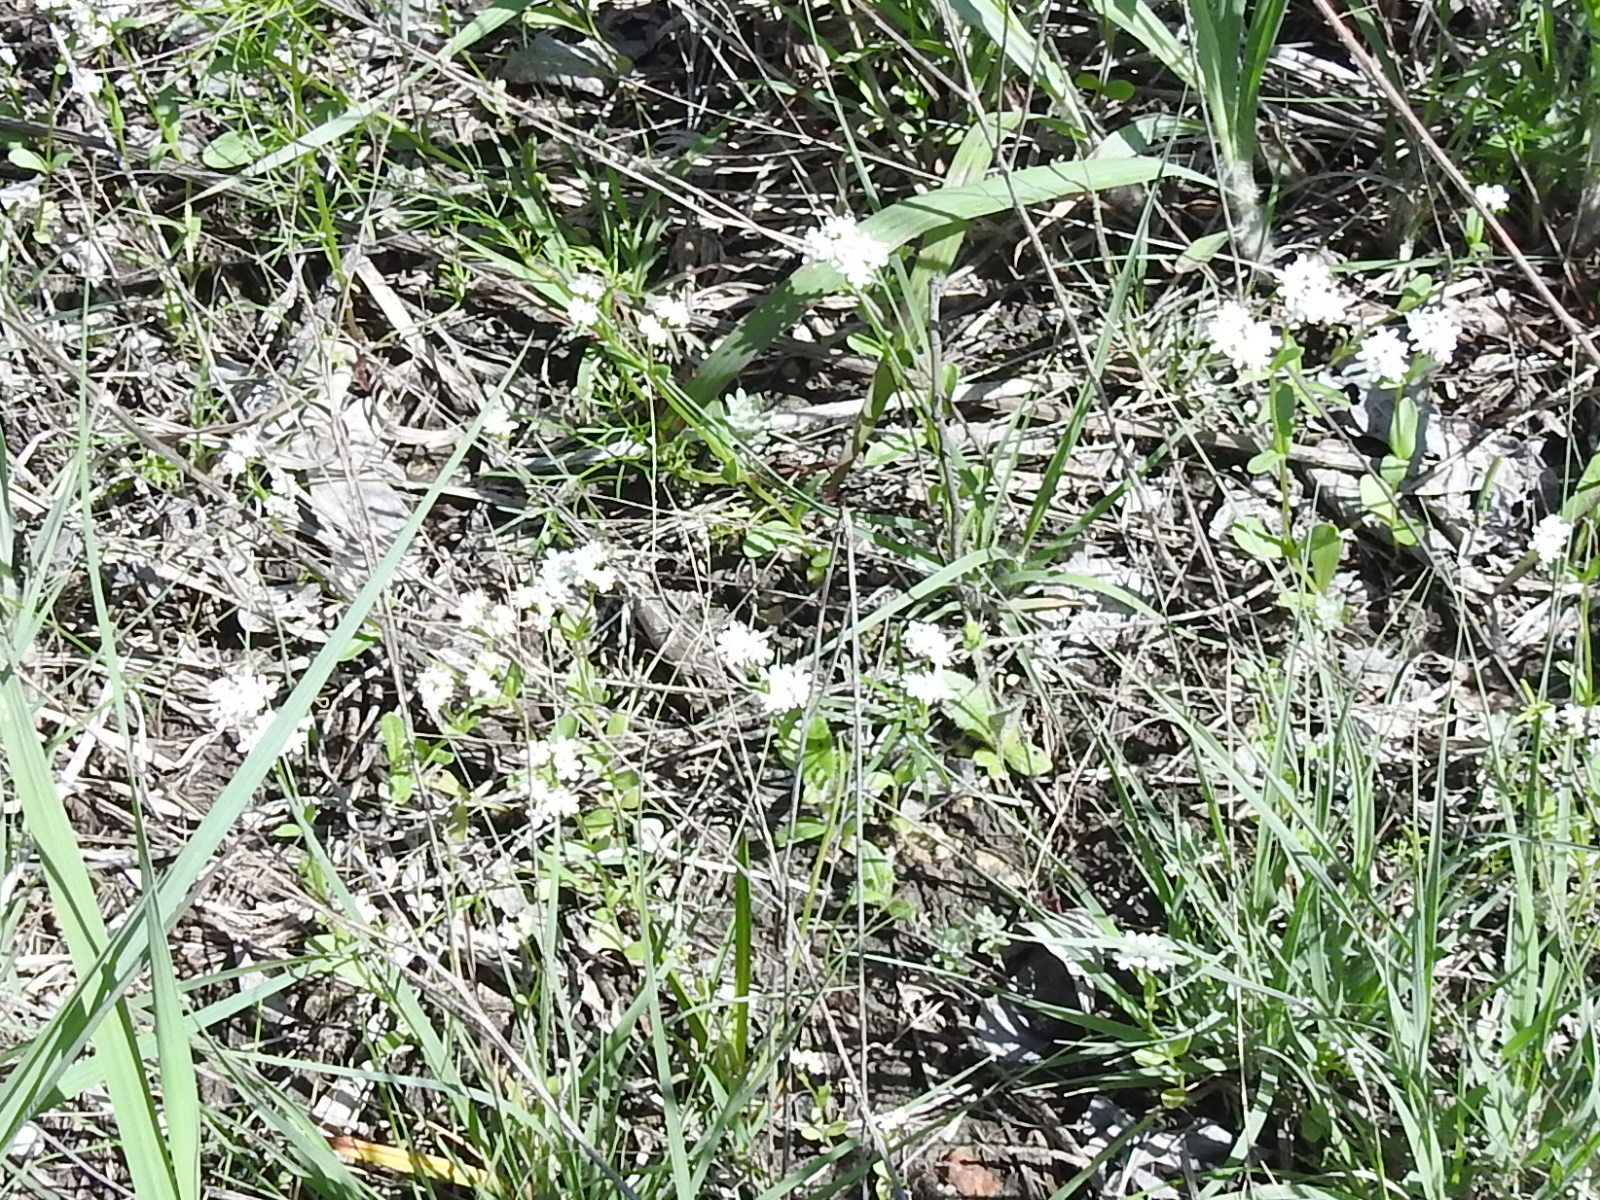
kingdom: Plantae
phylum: Tracheophyta
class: Magnoliopsida
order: Dipsacales
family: Caprifoliaceae
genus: Valerianella
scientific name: Valerianella amarella
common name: Hariy cornsalad
